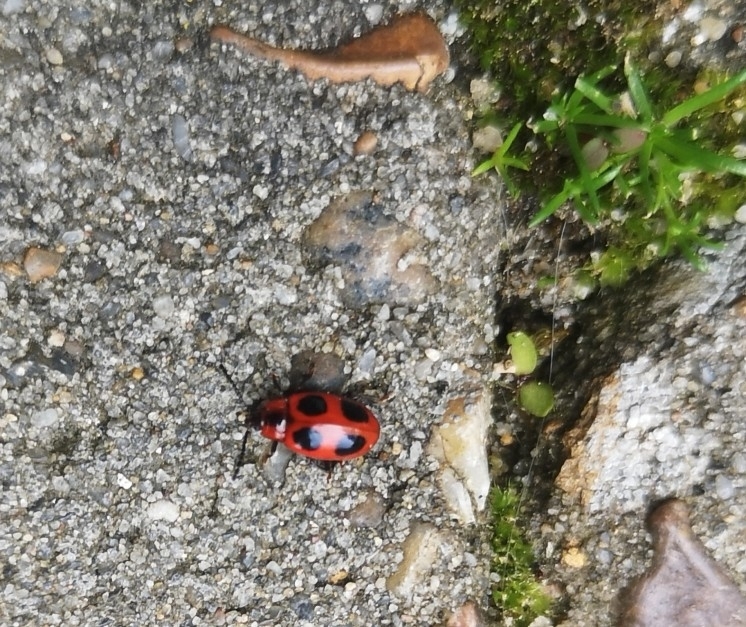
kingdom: Animalia
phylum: Arthropoda
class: Insecta
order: Coleoptera
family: Endomychidae
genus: Endomychus
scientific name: Endomychus coccineus
